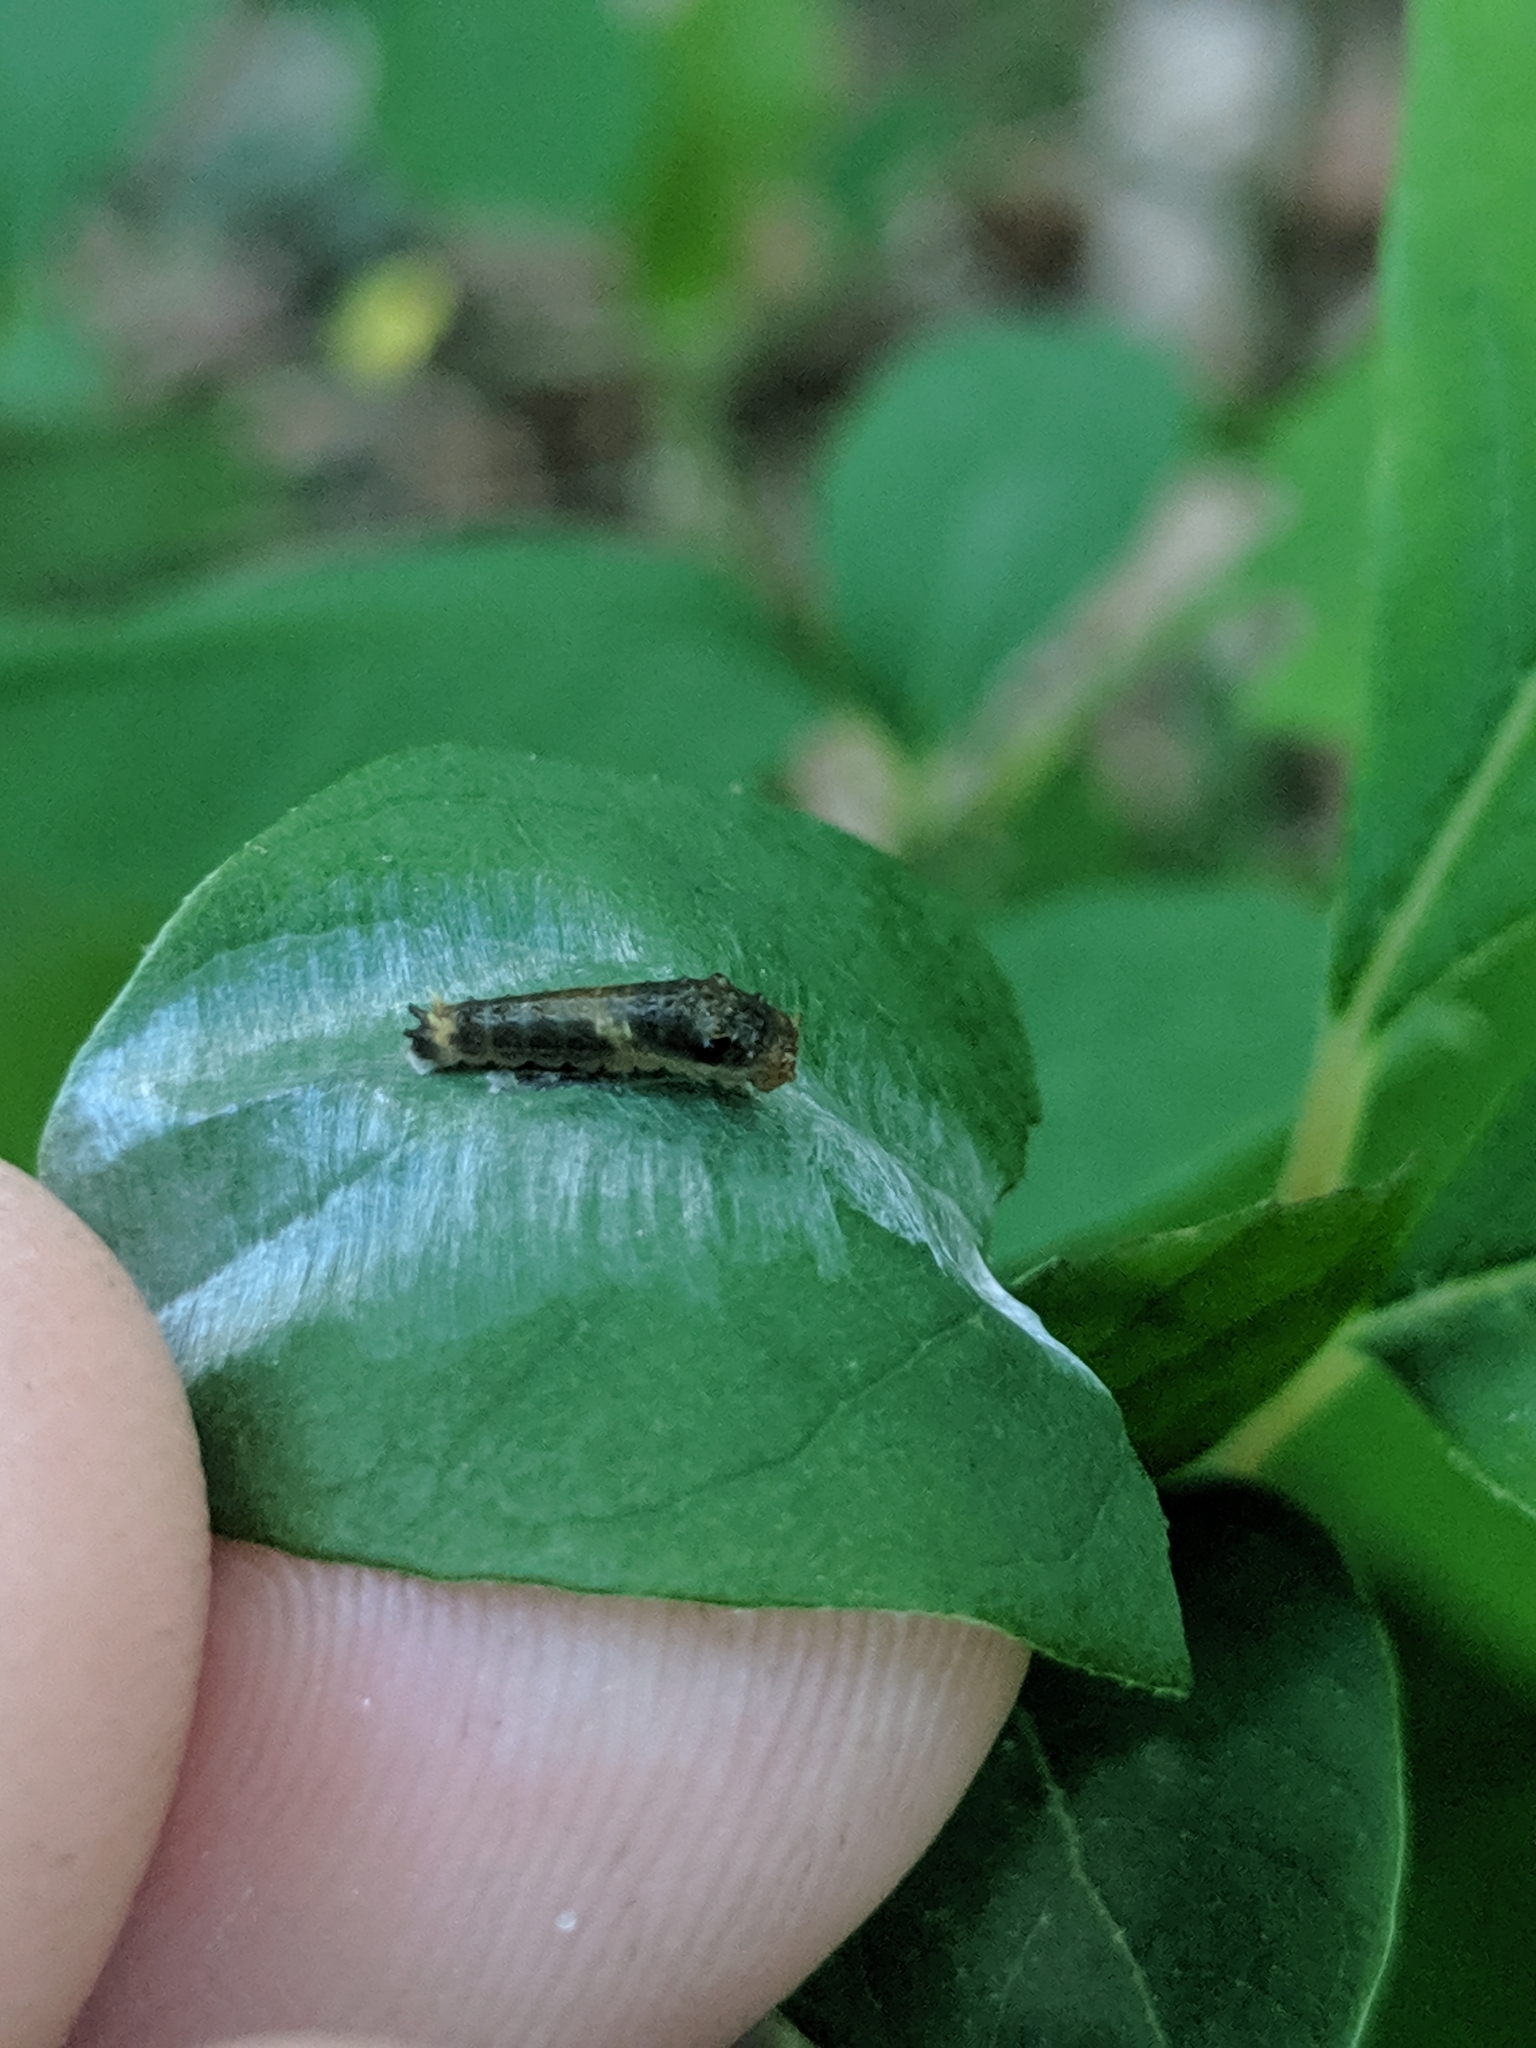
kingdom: Animalia
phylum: Arthropoda
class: Insecta
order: Lepidoptera
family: Papilionidae
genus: Papilio
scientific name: Papilio troilus
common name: Spicebush swallowtail
